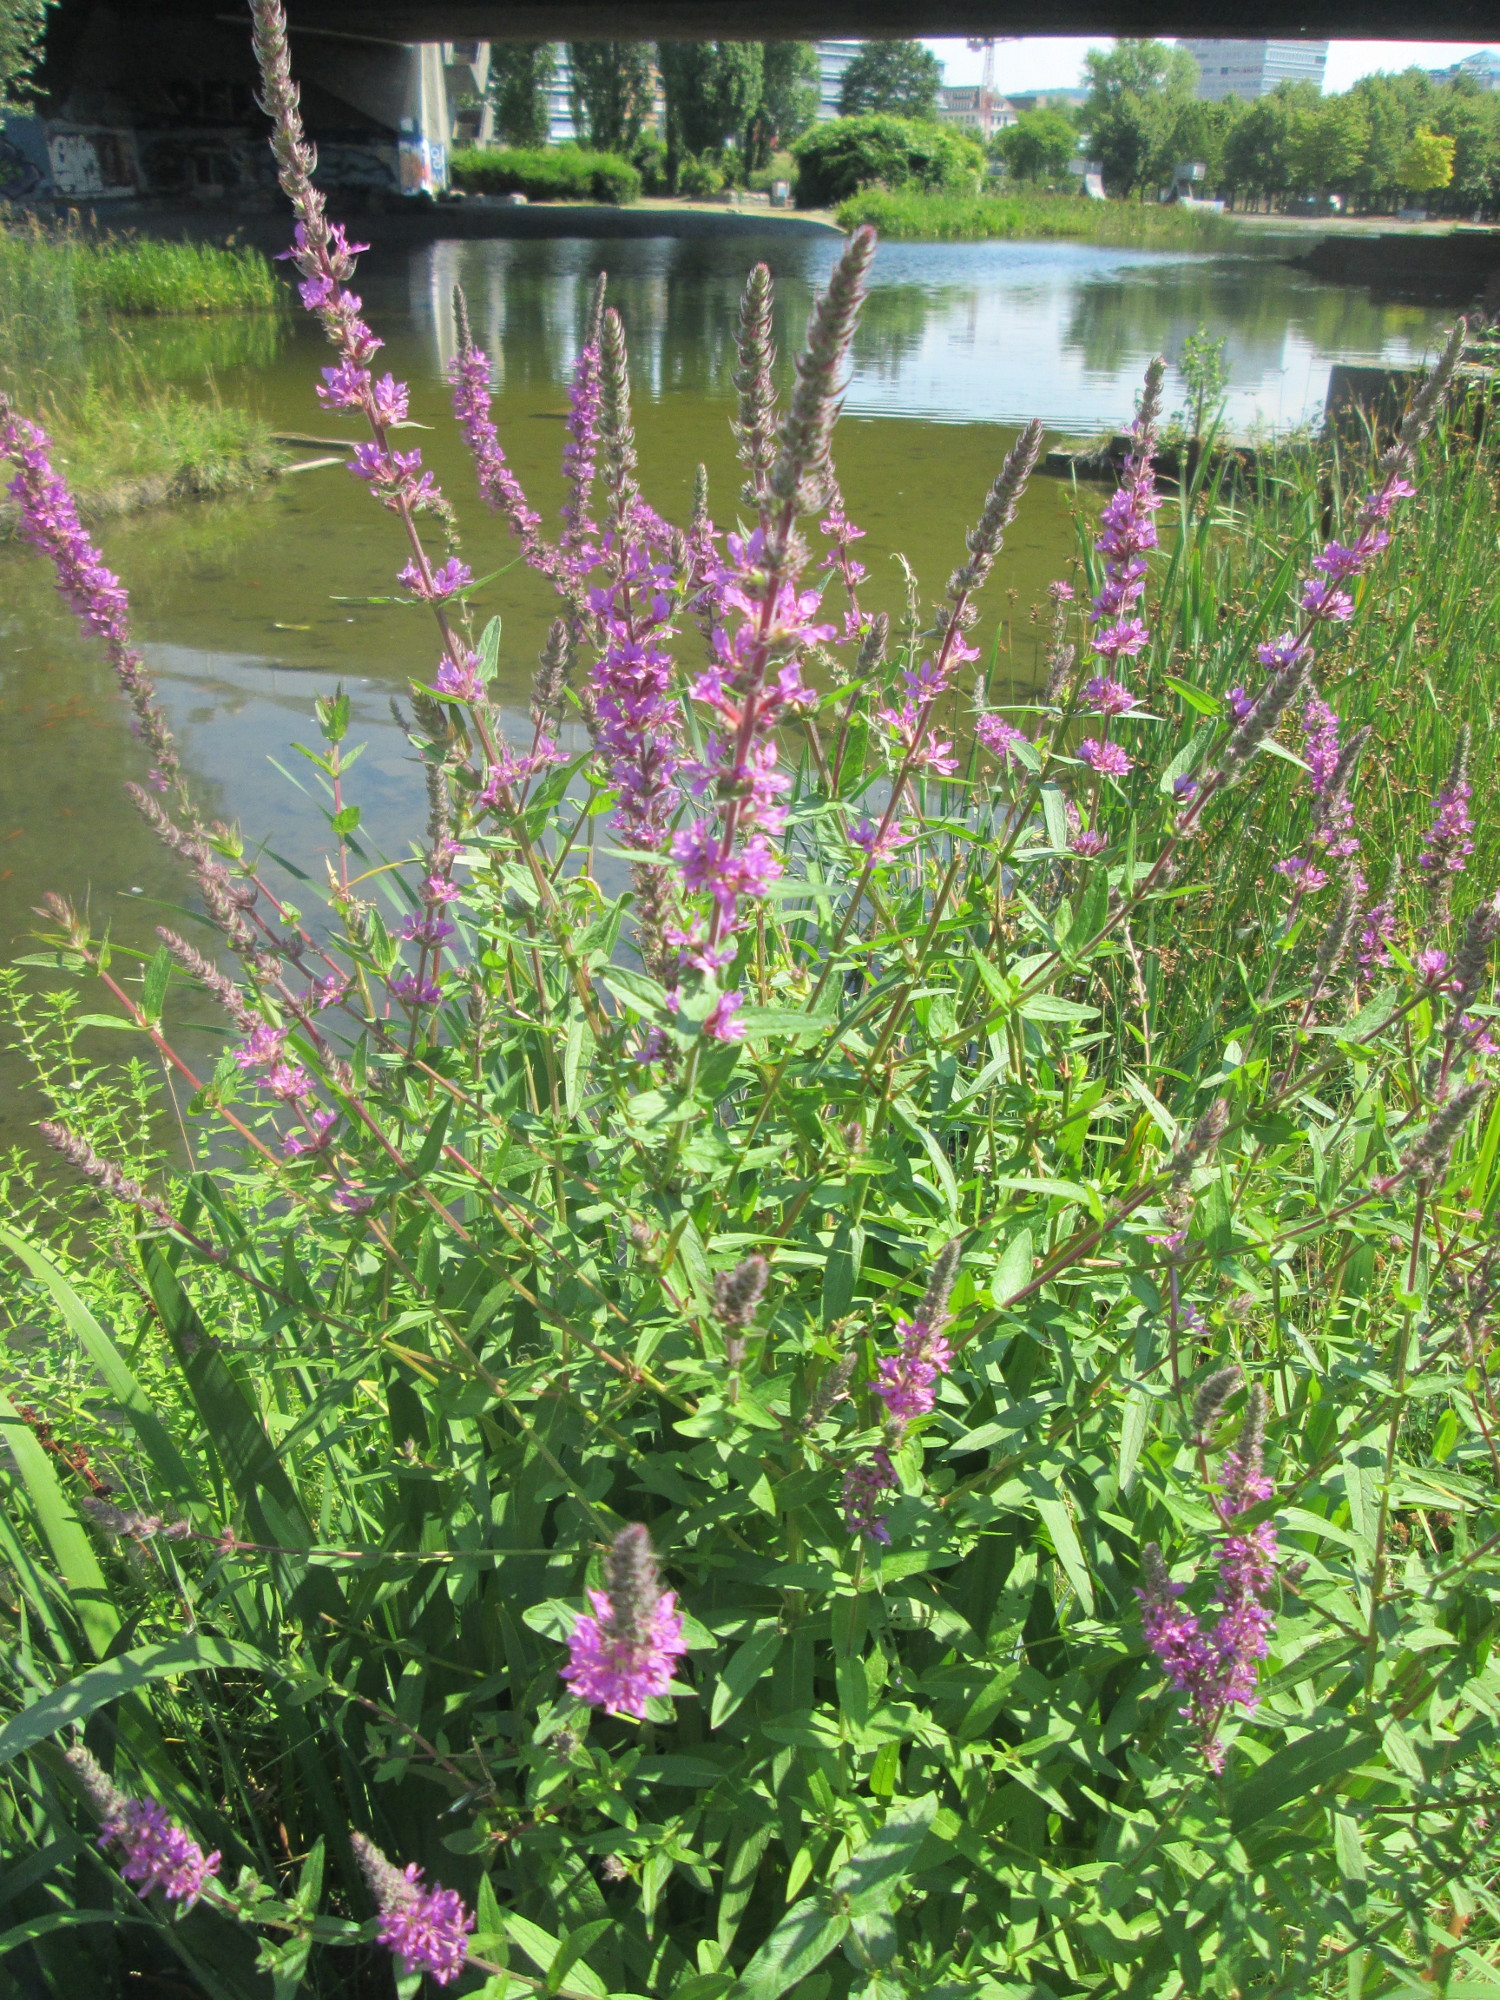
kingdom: Plantae
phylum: Tracheophyta
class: Magnoliopsida
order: Myrtales
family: Lythraceae
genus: Lythrum
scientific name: Lythrum salicaria
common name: Purple loosestrife
